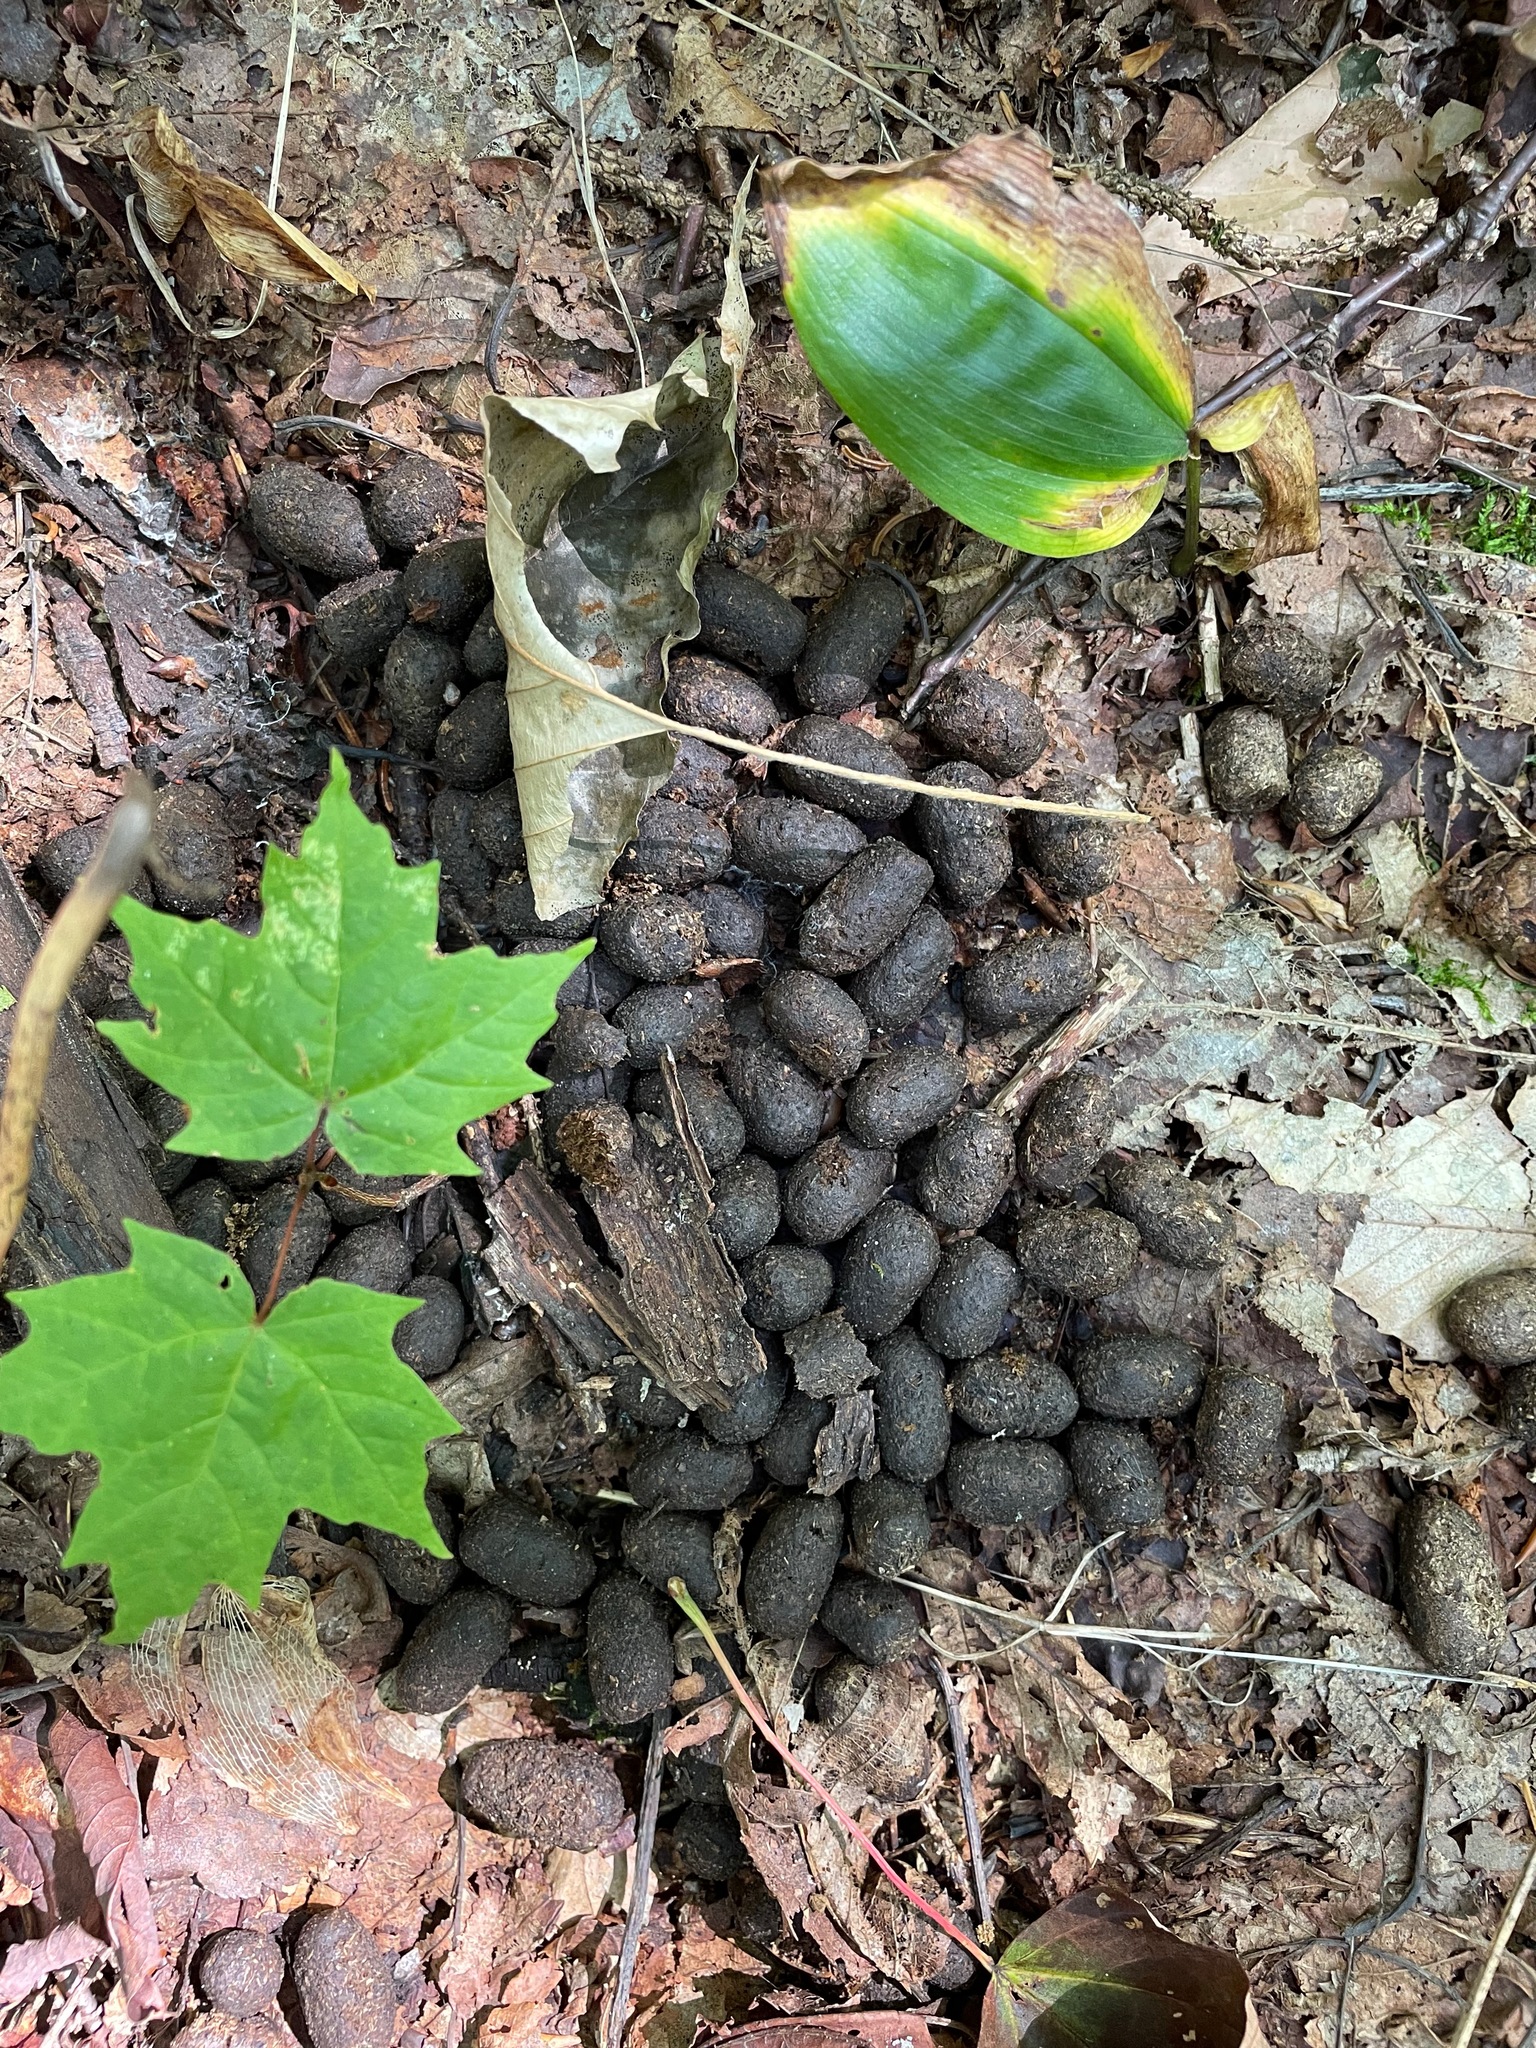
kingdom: Animalia
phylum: Chordata
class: Mammalia
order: Artiodactyla
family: Cervidae
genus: Odocoileus
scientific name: Odocoileus virginianus
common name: White-tailed deer
